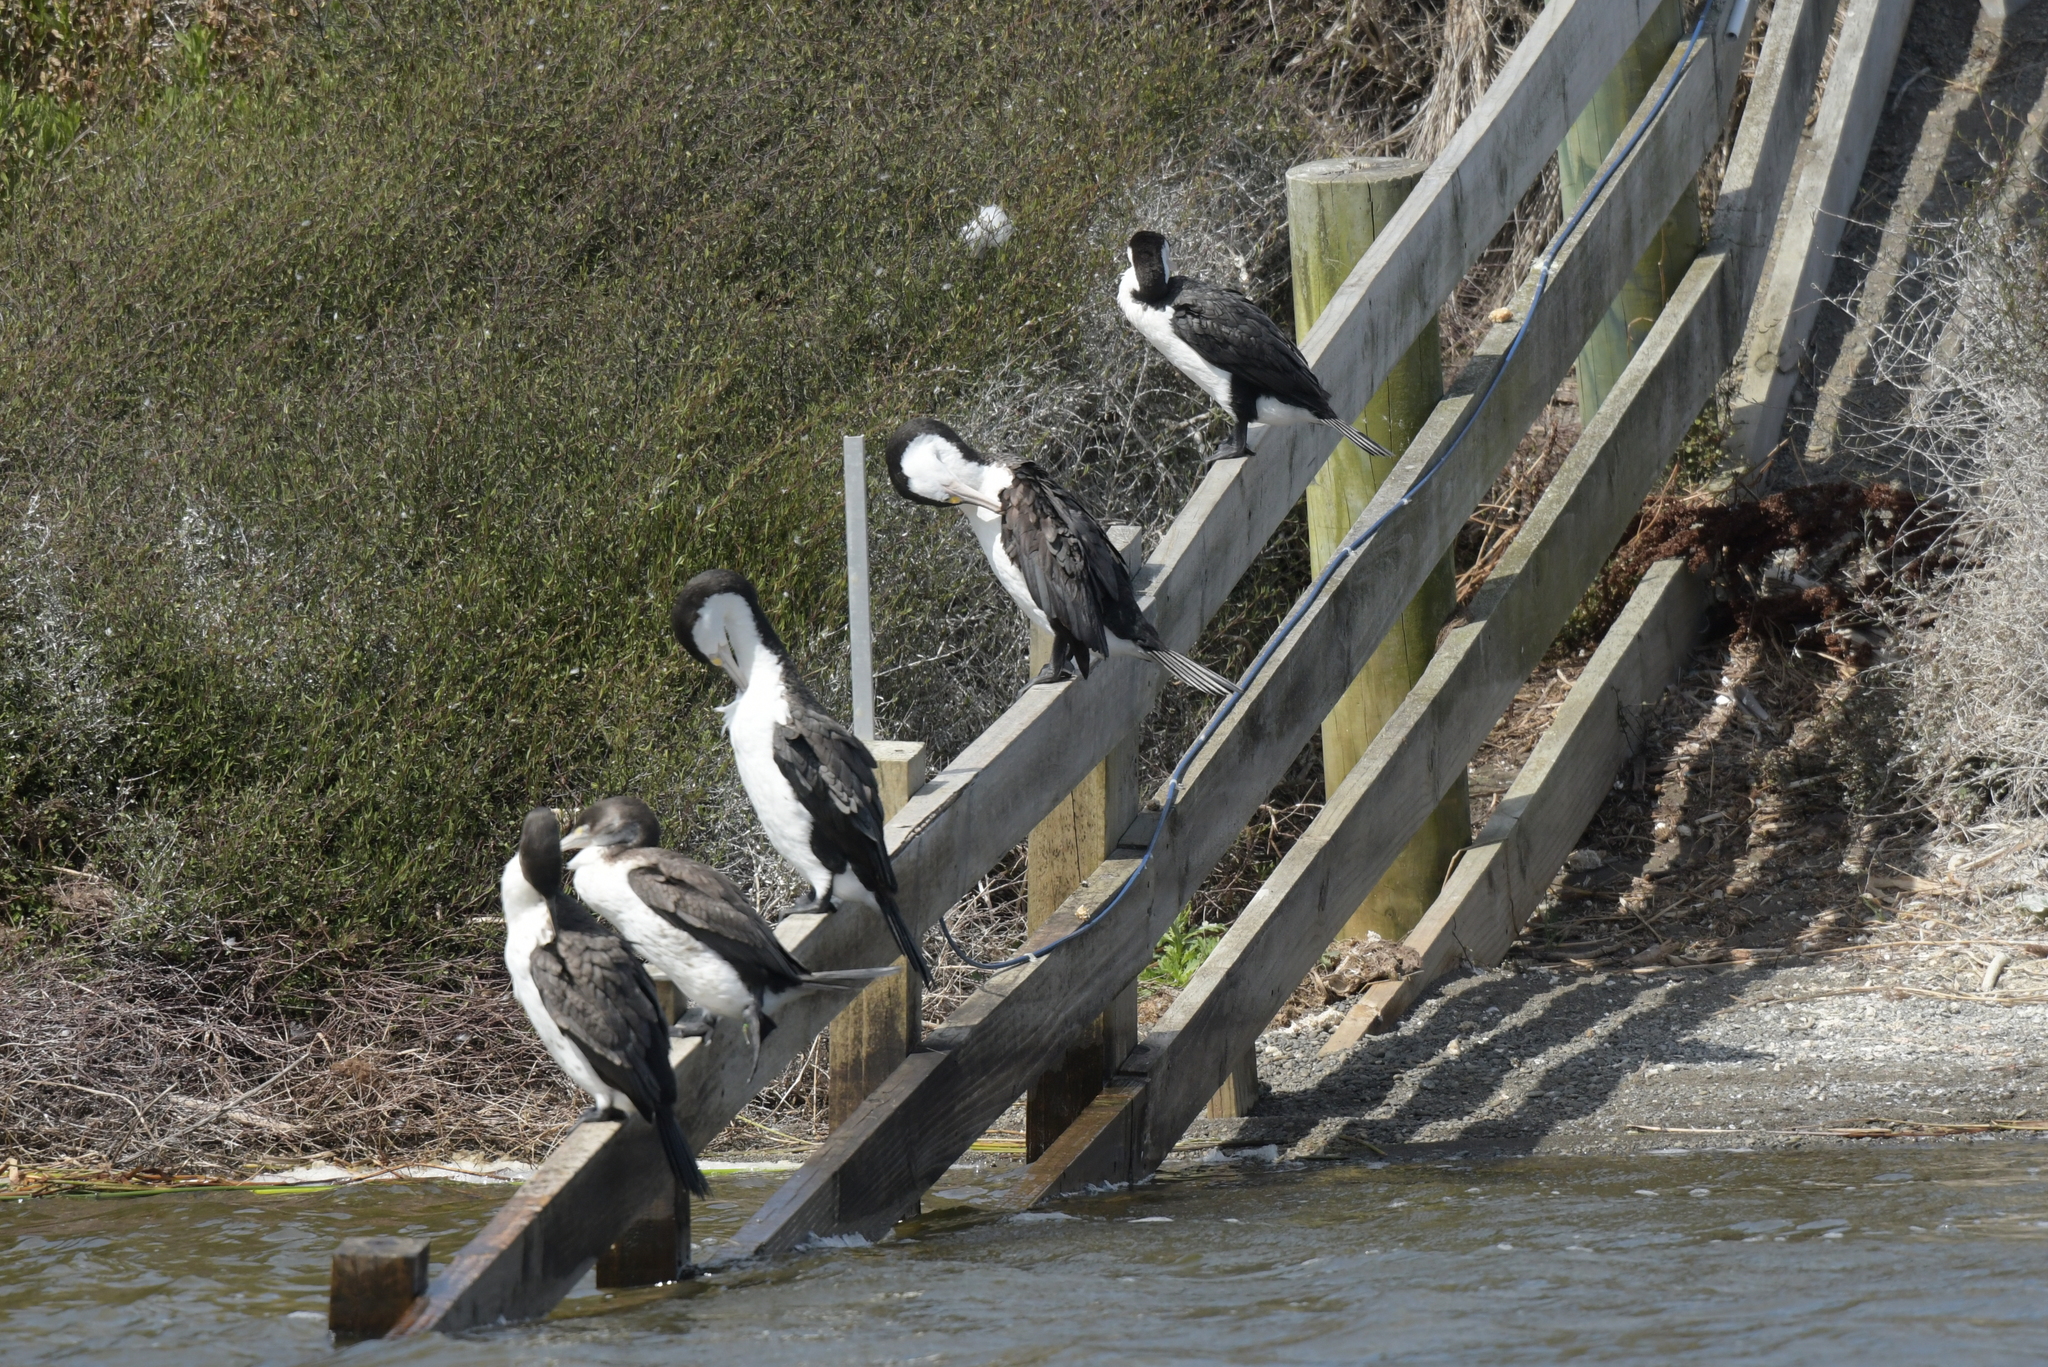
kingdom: Animalia
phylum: Chordata
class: Aves
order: Suliformes
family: Phalacrocoracidae
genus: Phalacrocorax
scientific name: Phalacrocorax varius
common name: Pied cormorant
